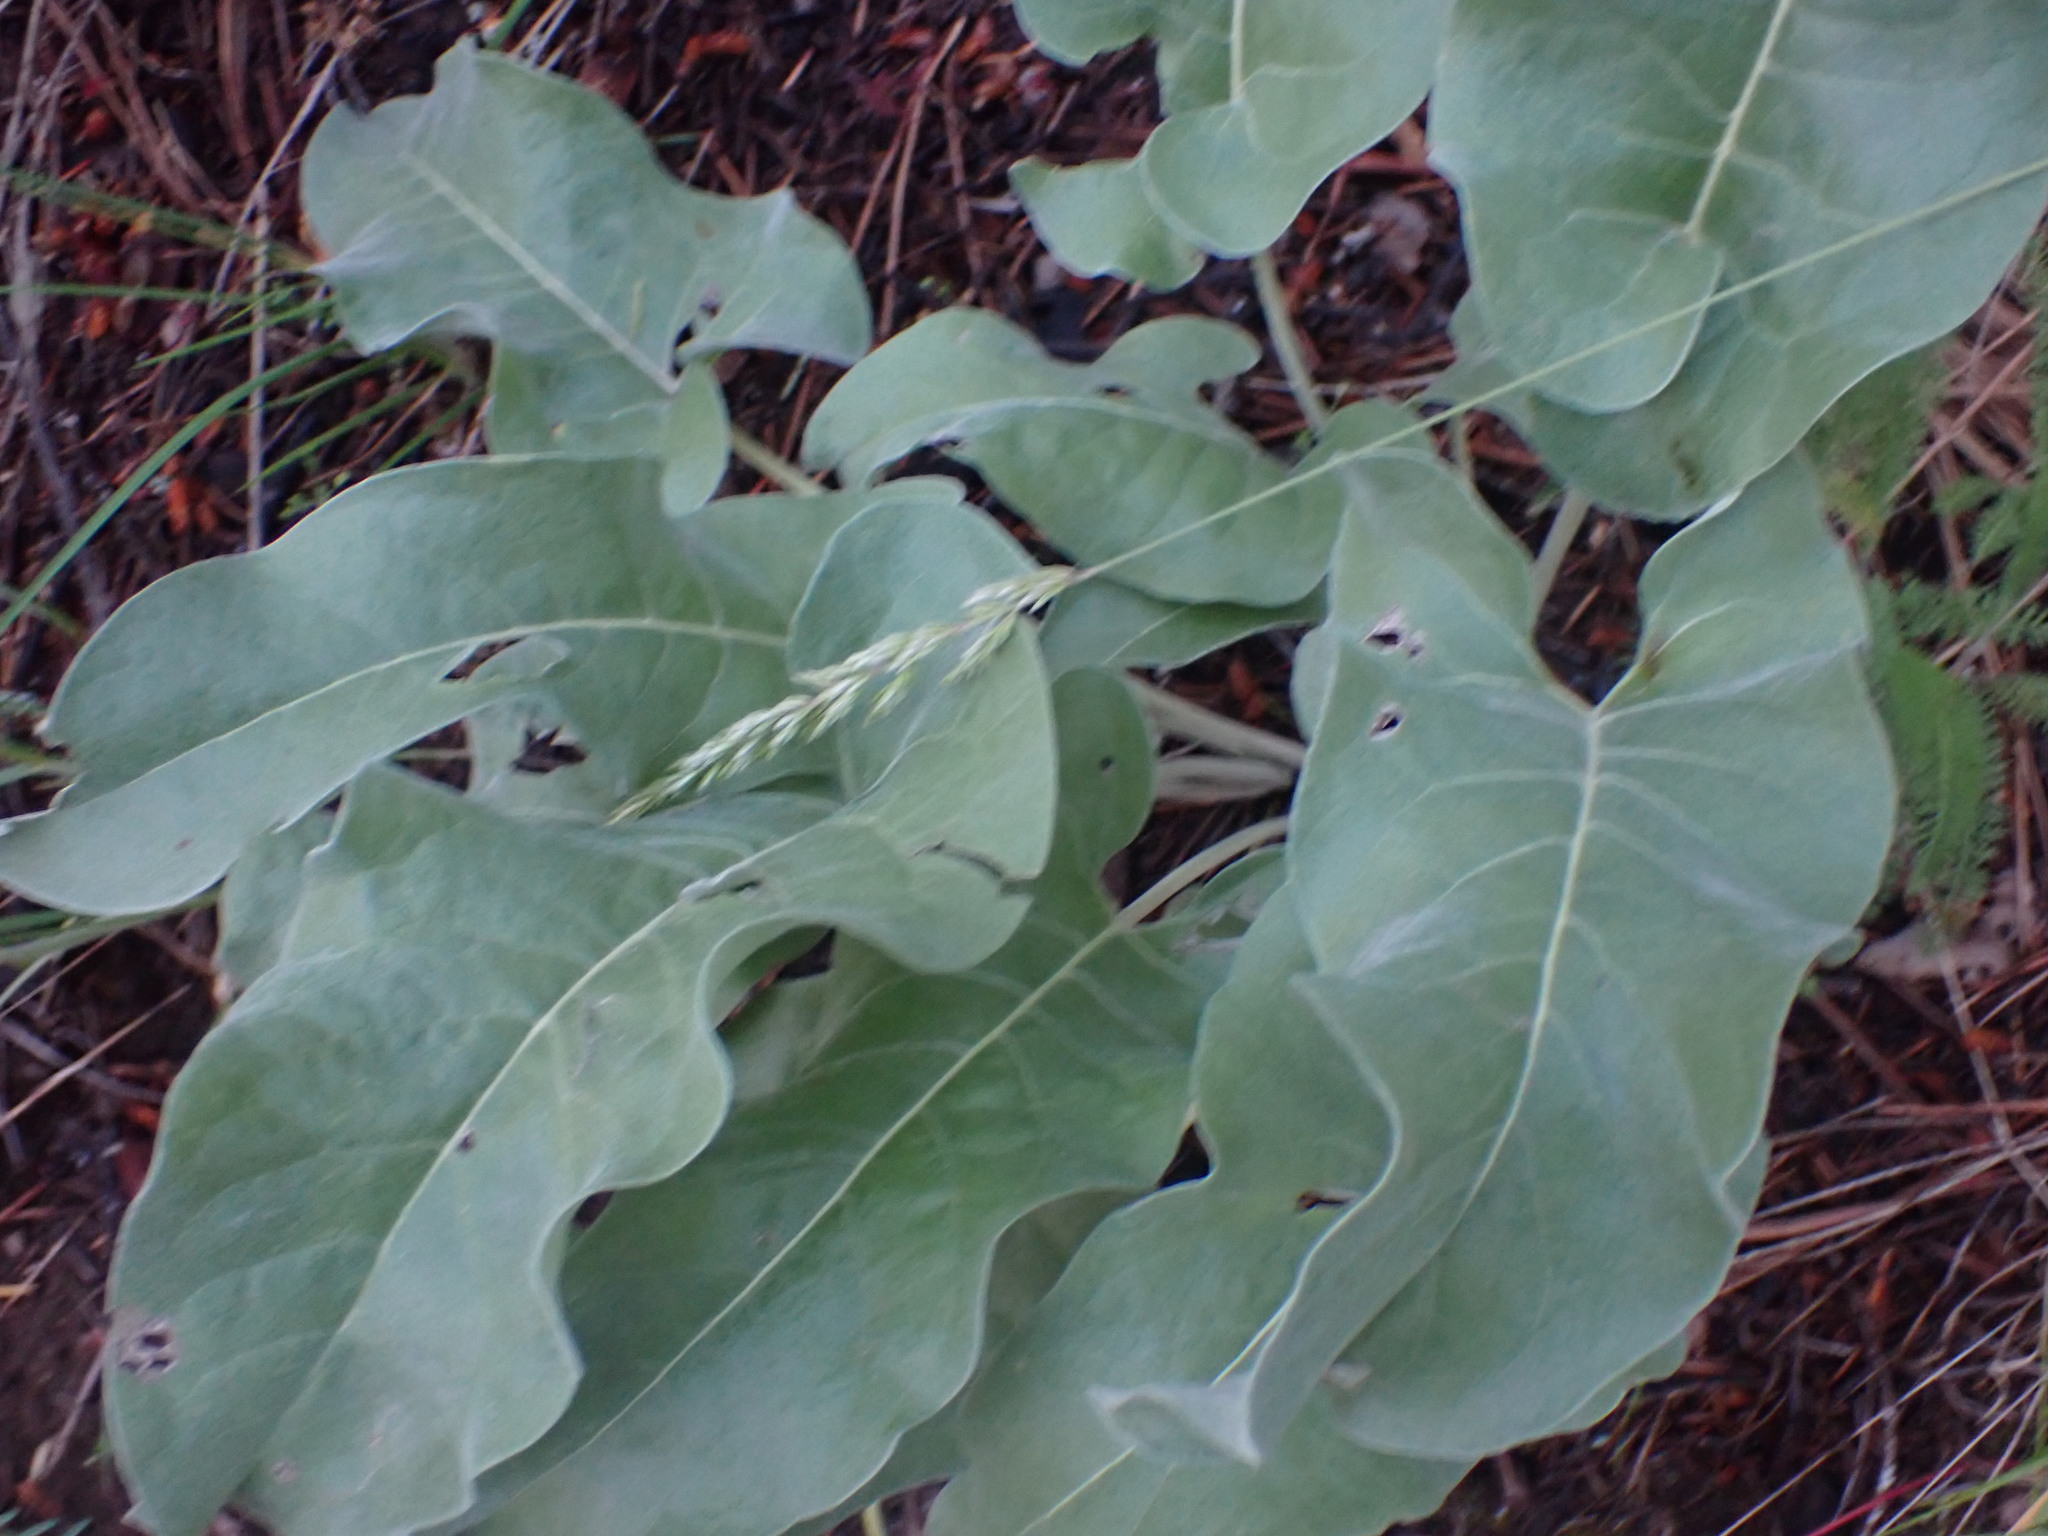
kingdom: Plantae
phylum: Tracheophyta
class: Magnoliopsida
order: Asterales
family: Asteraceae
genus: Wyethia
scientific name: Wyethia sagittata
